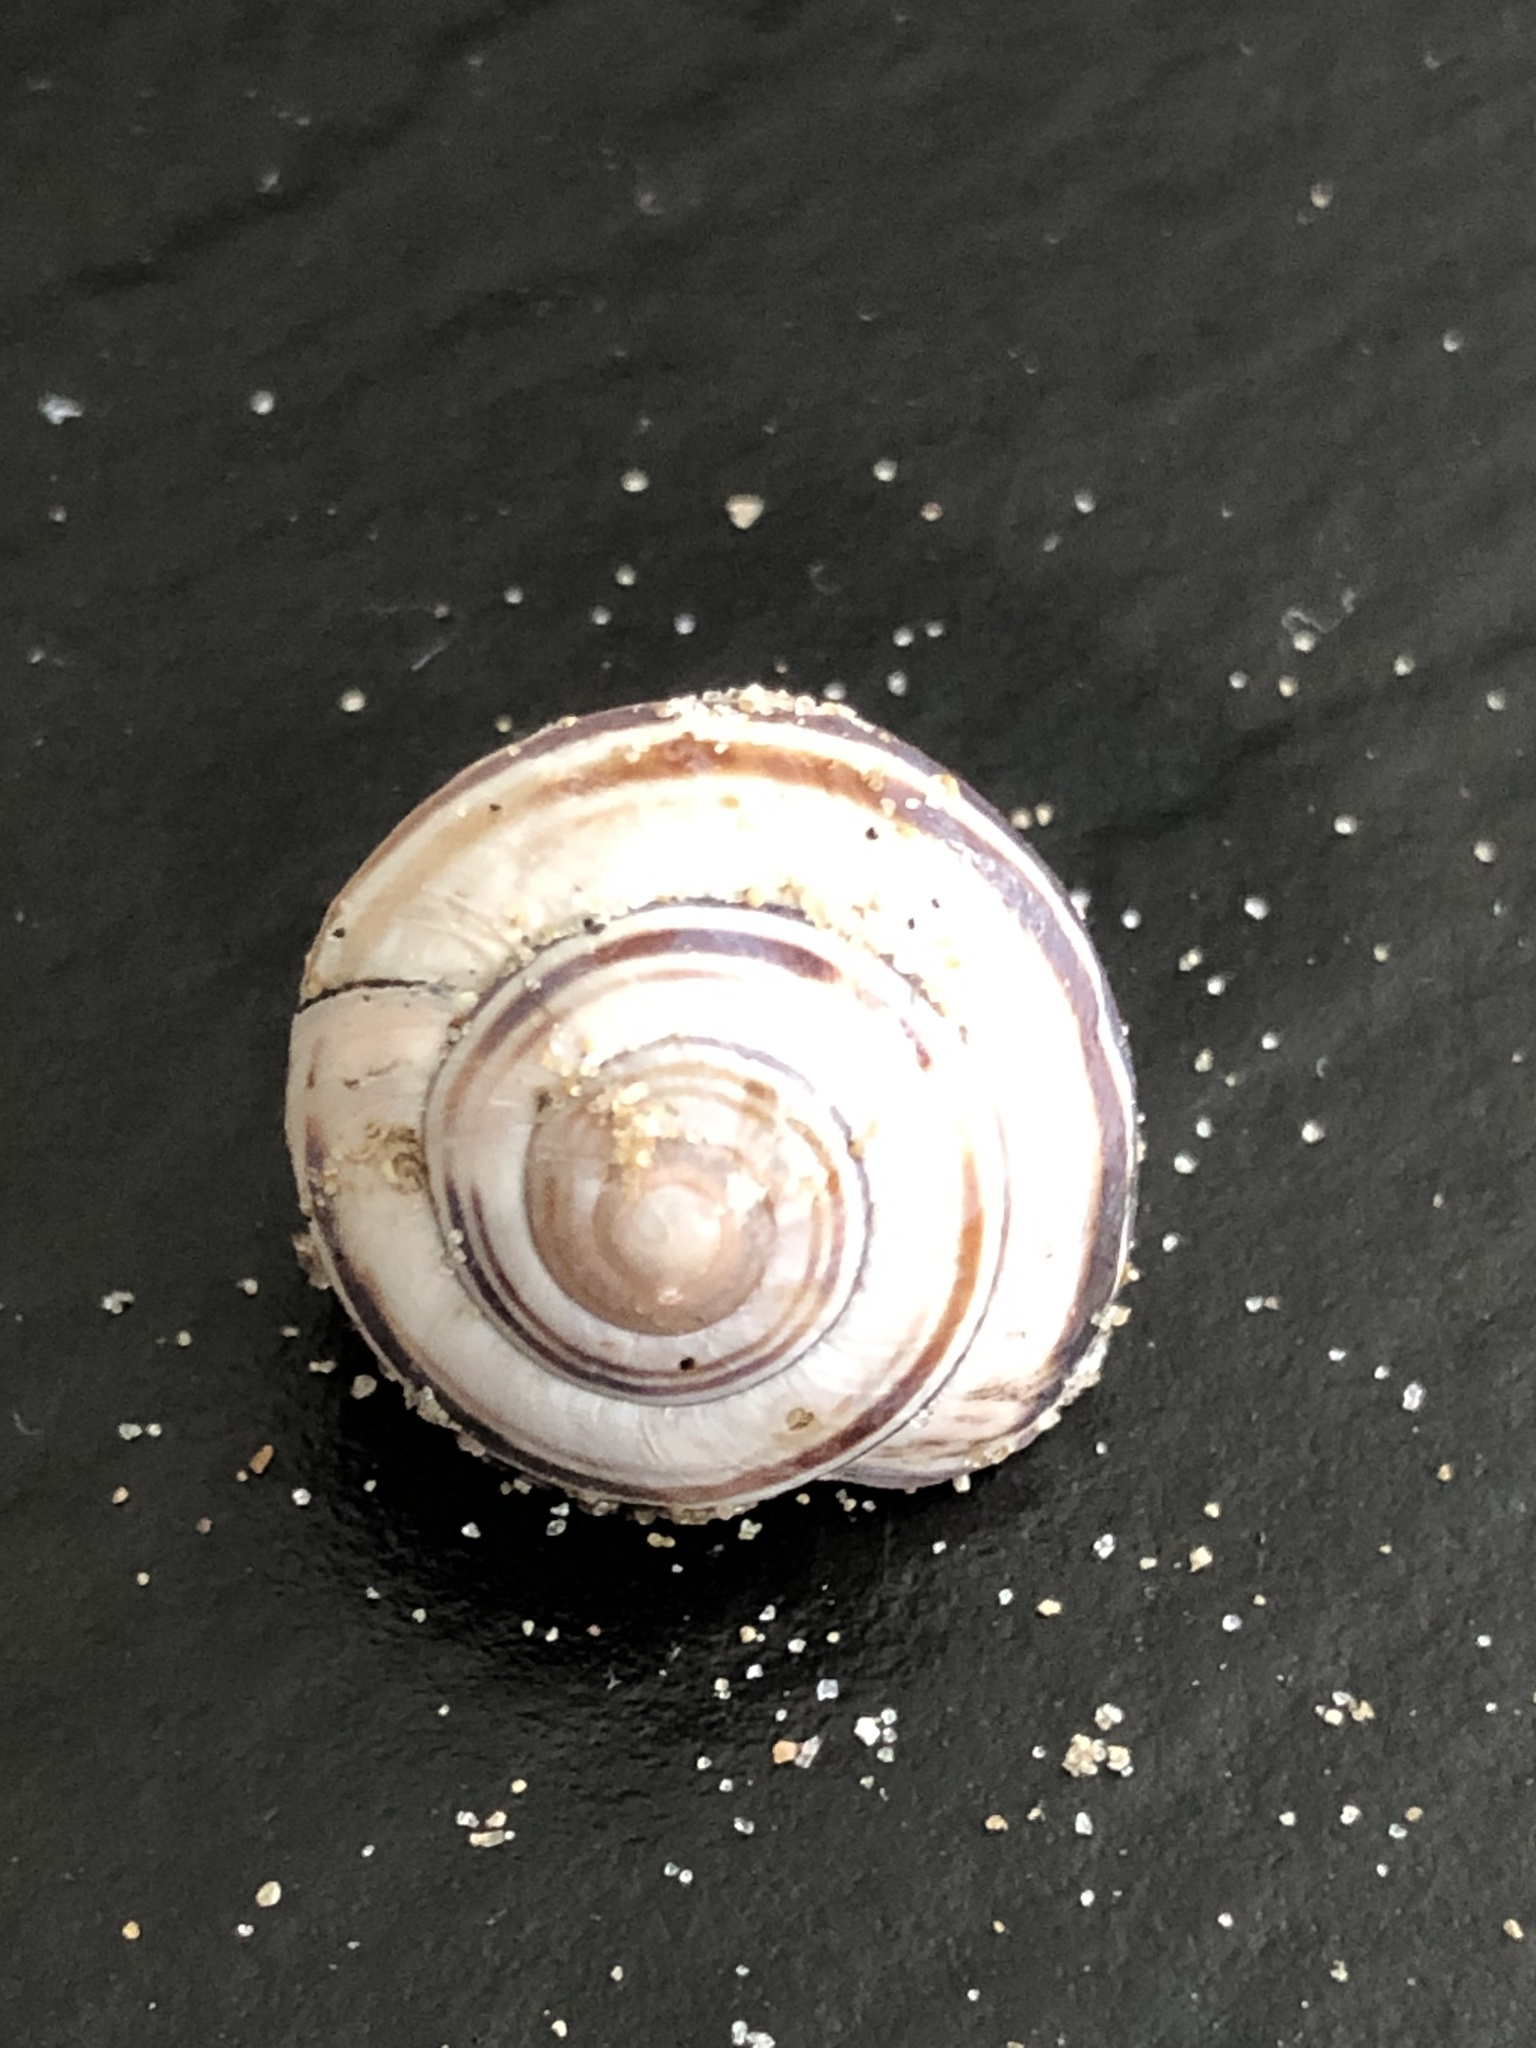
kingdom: Animalia
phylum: Mollusca
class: Gastropoda
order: Stylommatophora
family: Helicidae
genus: Cepaea
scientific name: Cepaea nemoralis
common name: Grovesnail
